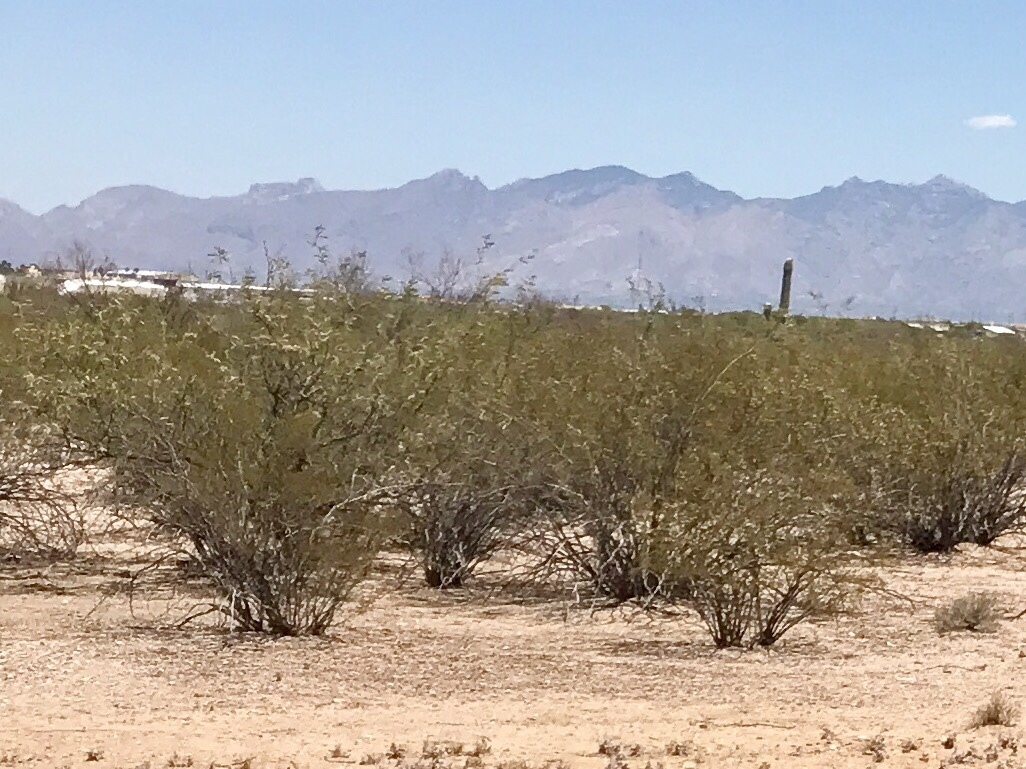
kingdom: Plantae
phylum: Tracheophyta
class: Magnoliopsida
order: Zygophyllales
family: Zygophyllaceae
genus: Larrea
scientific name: Larrea tridentata
